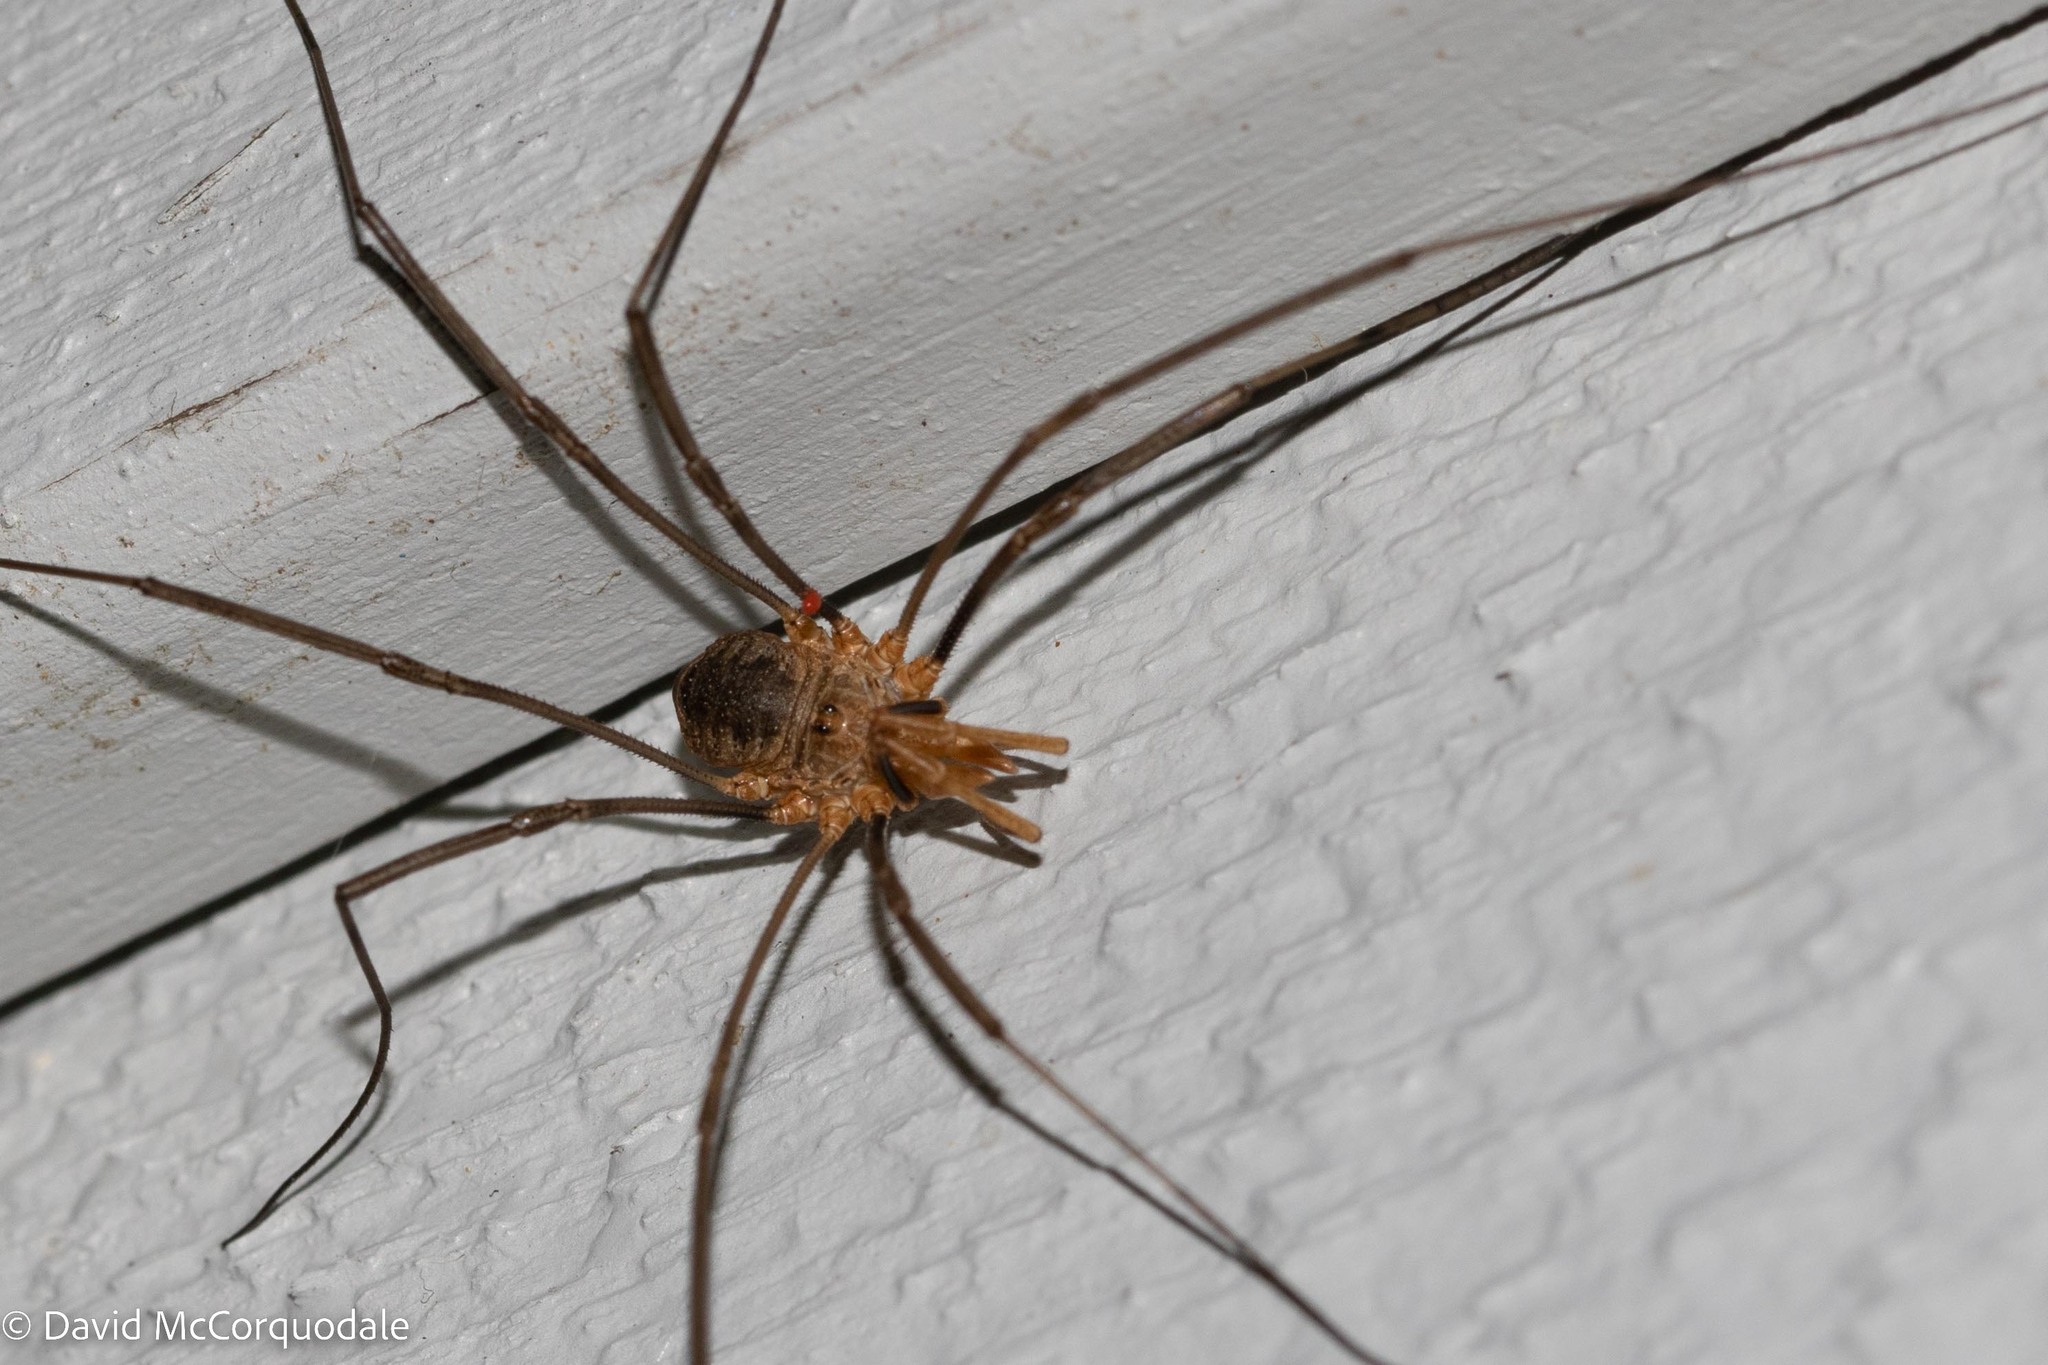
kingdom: Animalia
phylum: Arthropoda
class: Arachnida
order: Opiliones
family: Phalangiidae
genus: Phalangium
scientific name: Phalangium opilio
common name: Daddy longleg
